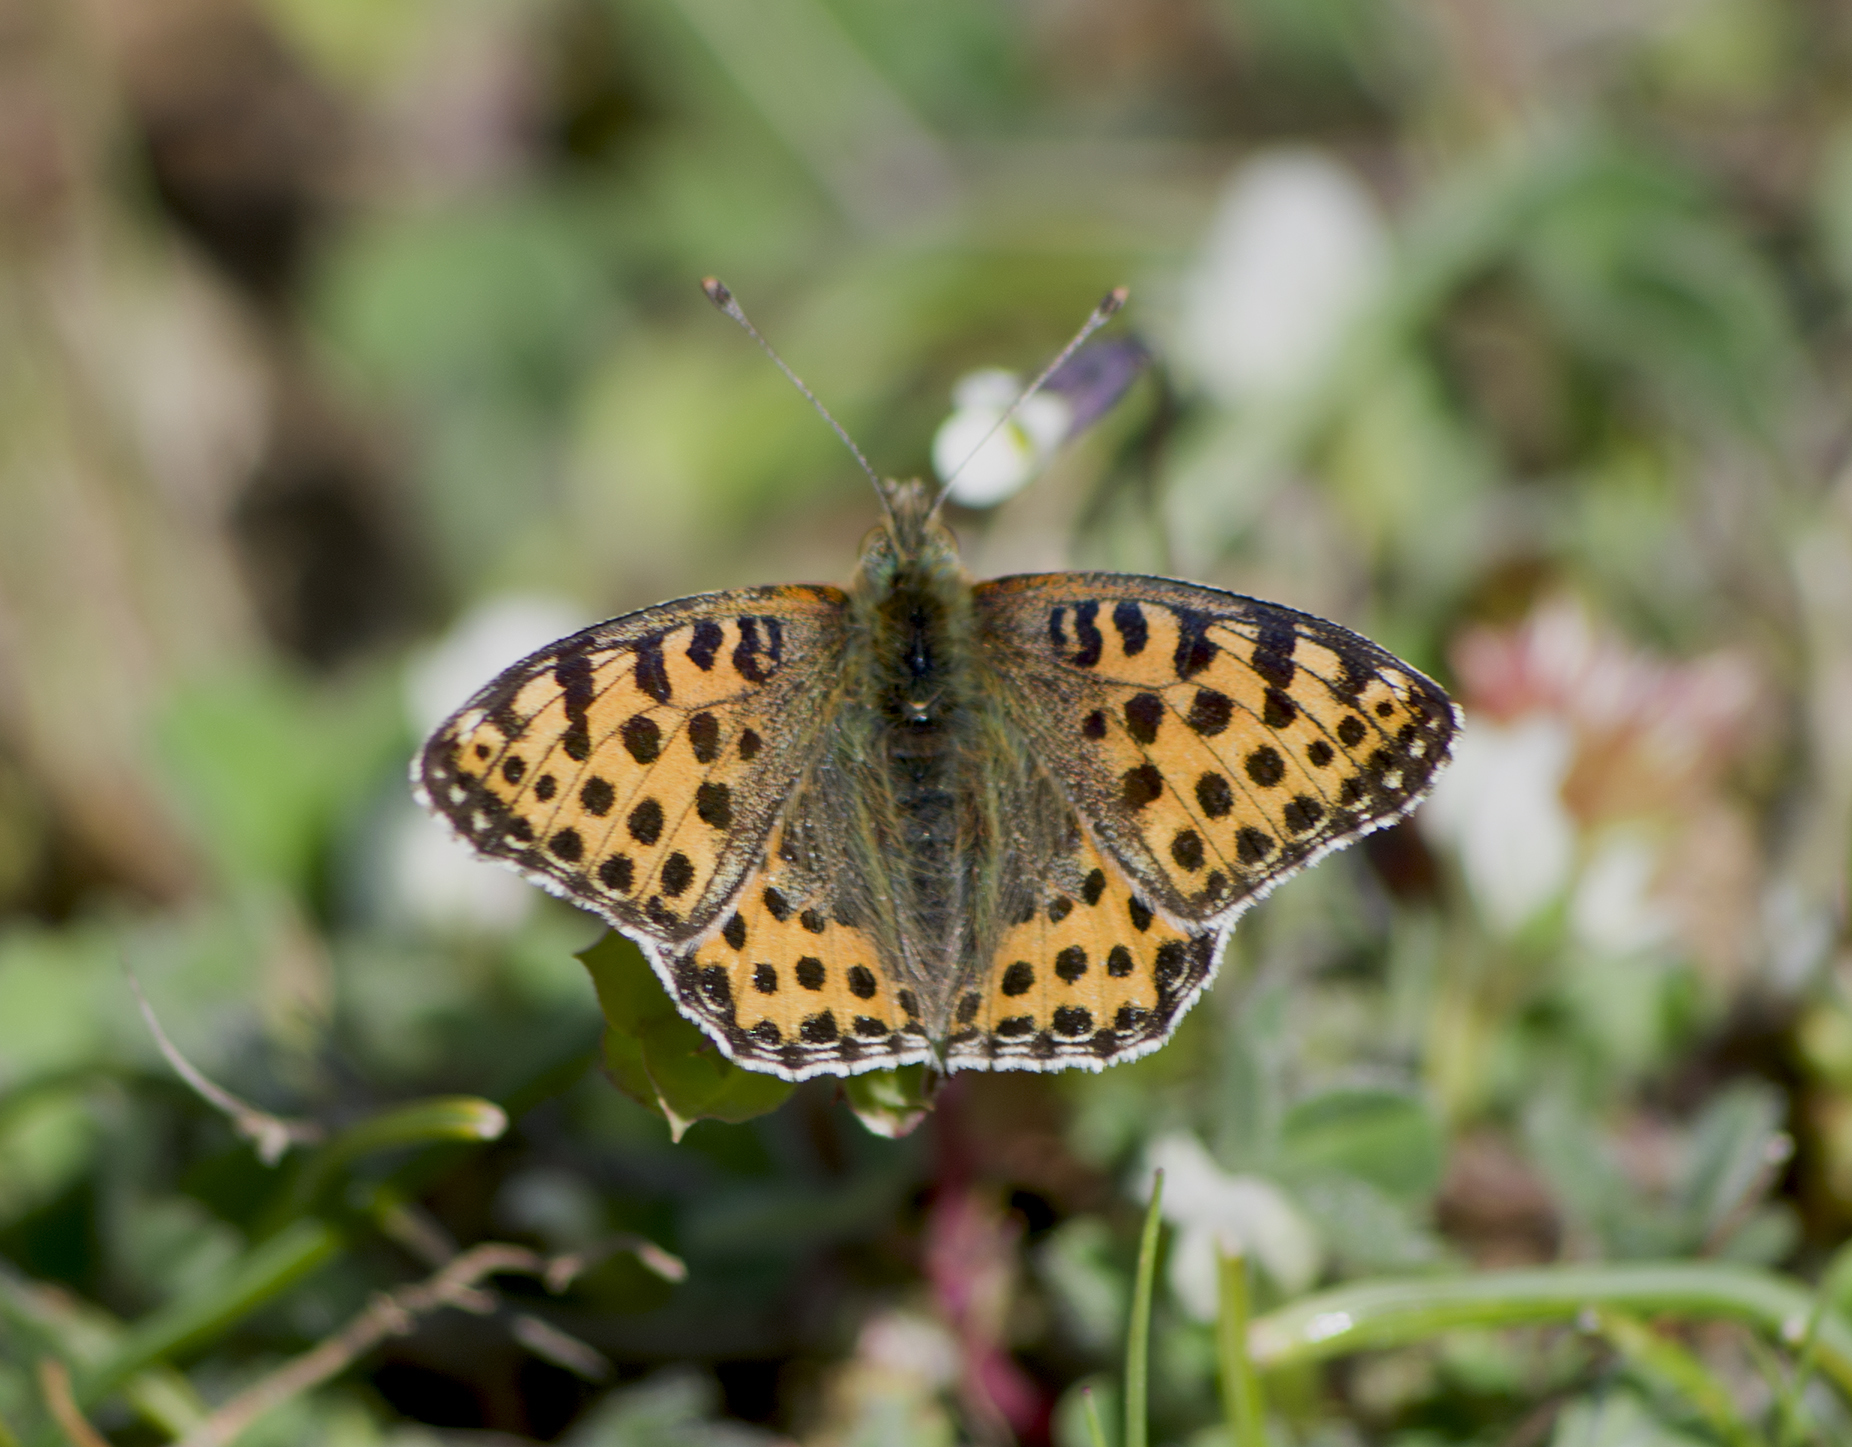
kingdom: Animalia
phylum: Arthropoda
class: Insecta
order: Lepidoptera
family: Nymphalidae
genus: Issoria
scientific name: Issoria lathonia
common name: Queen of spain fritillary
